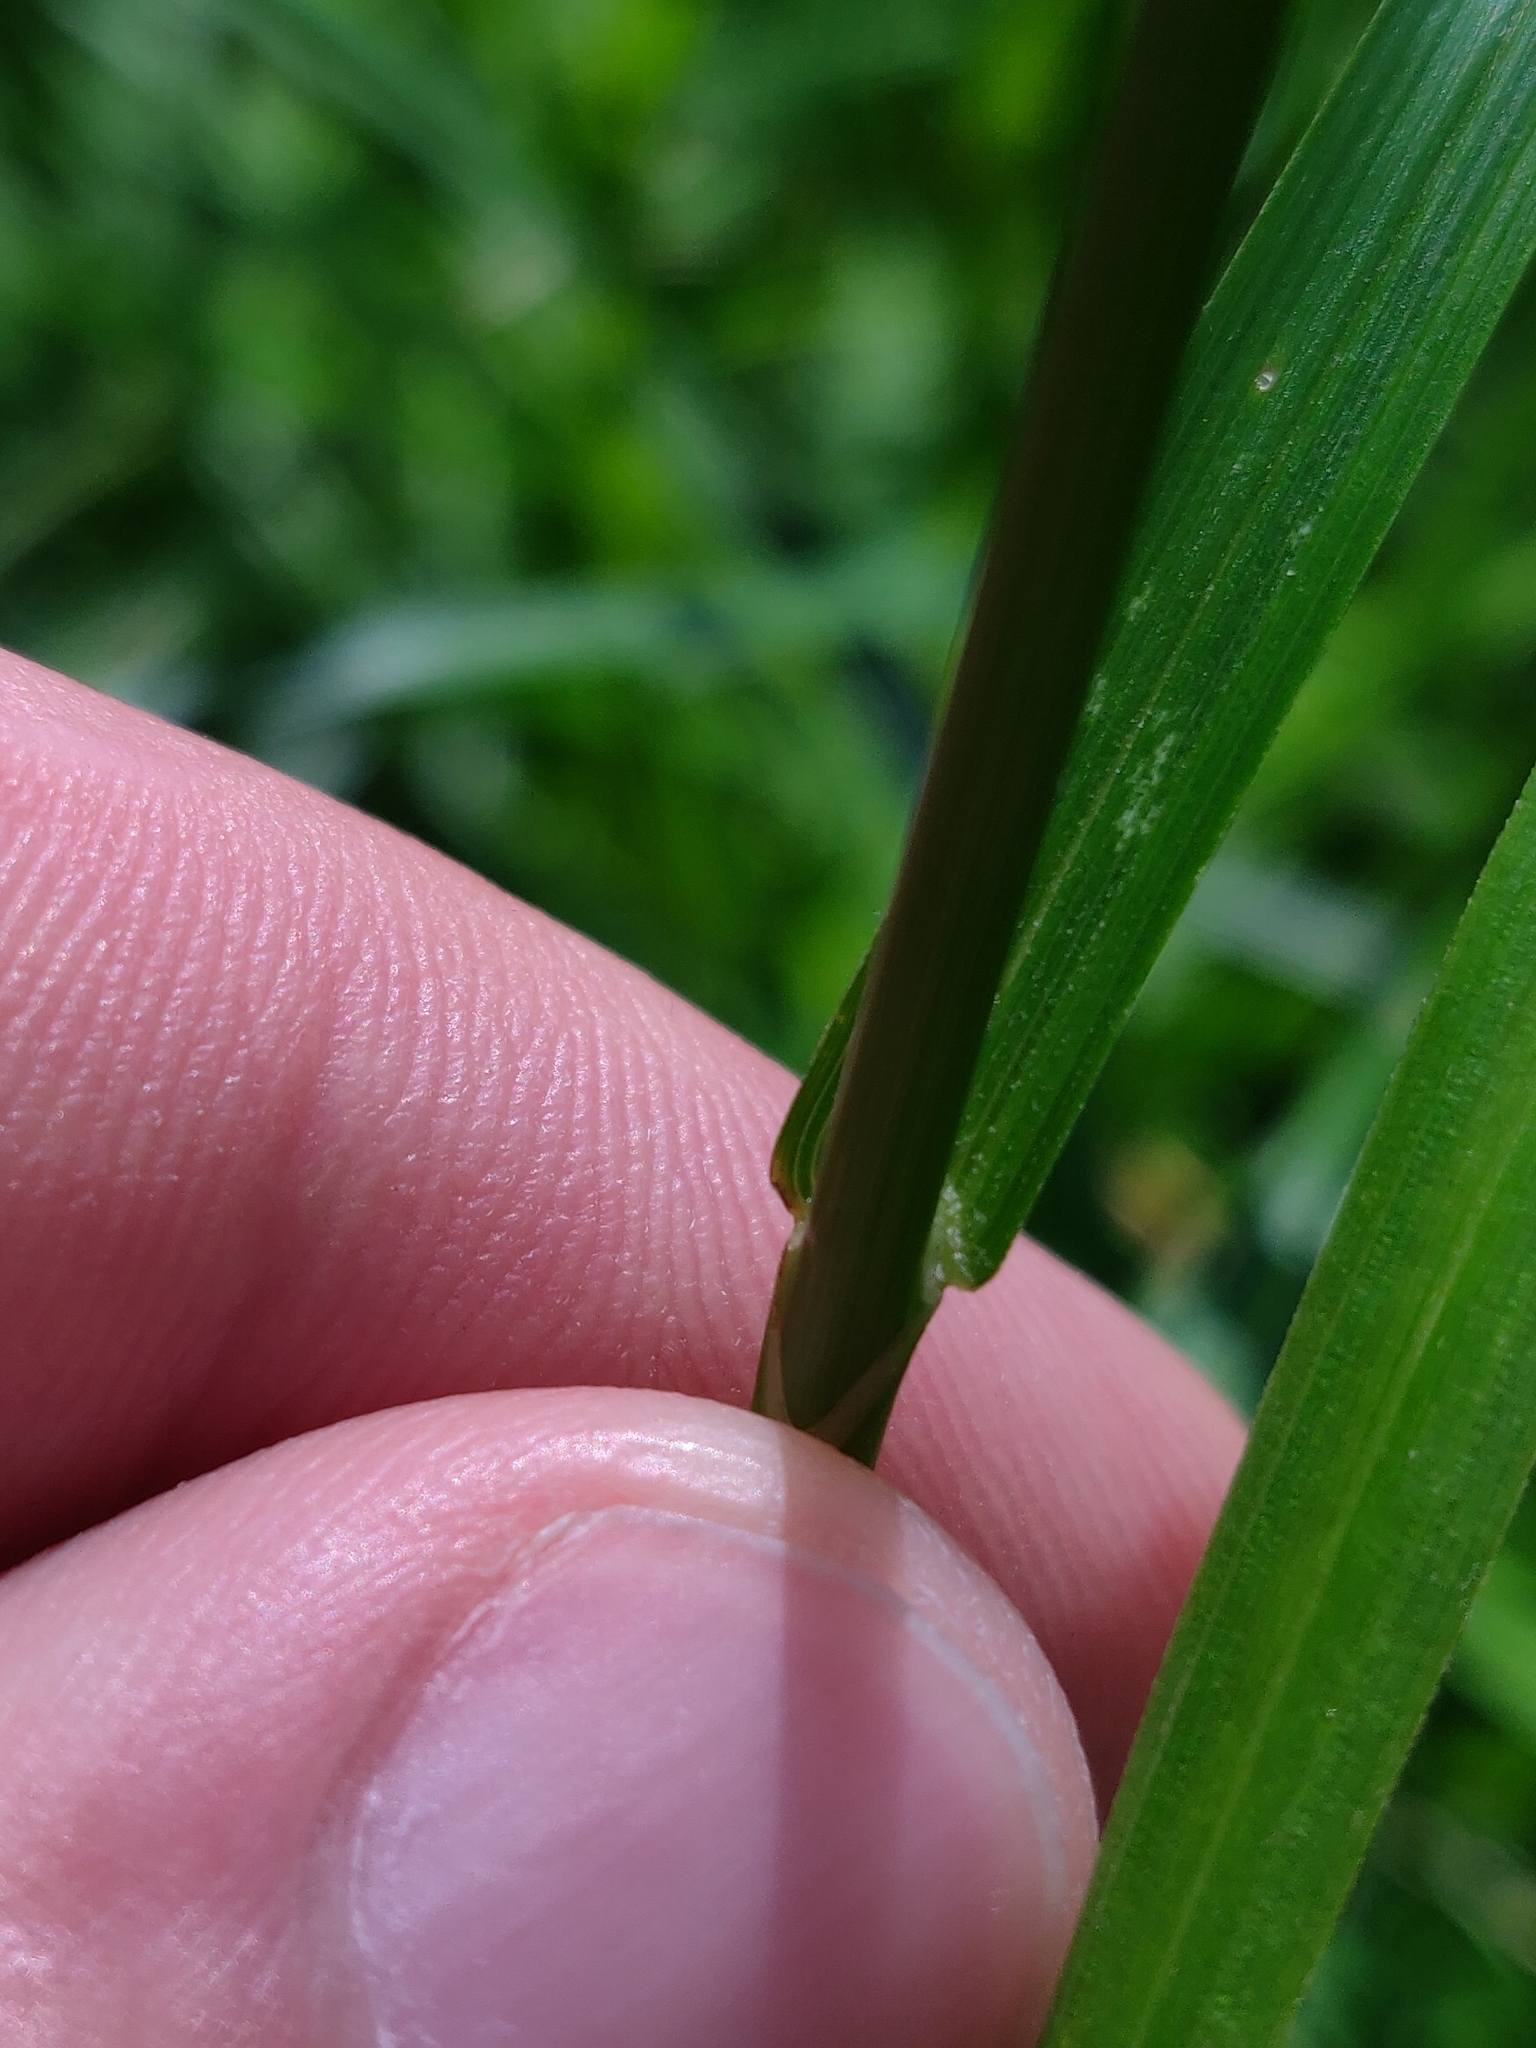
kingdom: Plantae
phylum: Tracheophyta
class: Liliopsida
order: Poales
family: Cyperaceae
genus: Carex
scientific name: Carex muskingumensis
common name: Muskingum sedge
